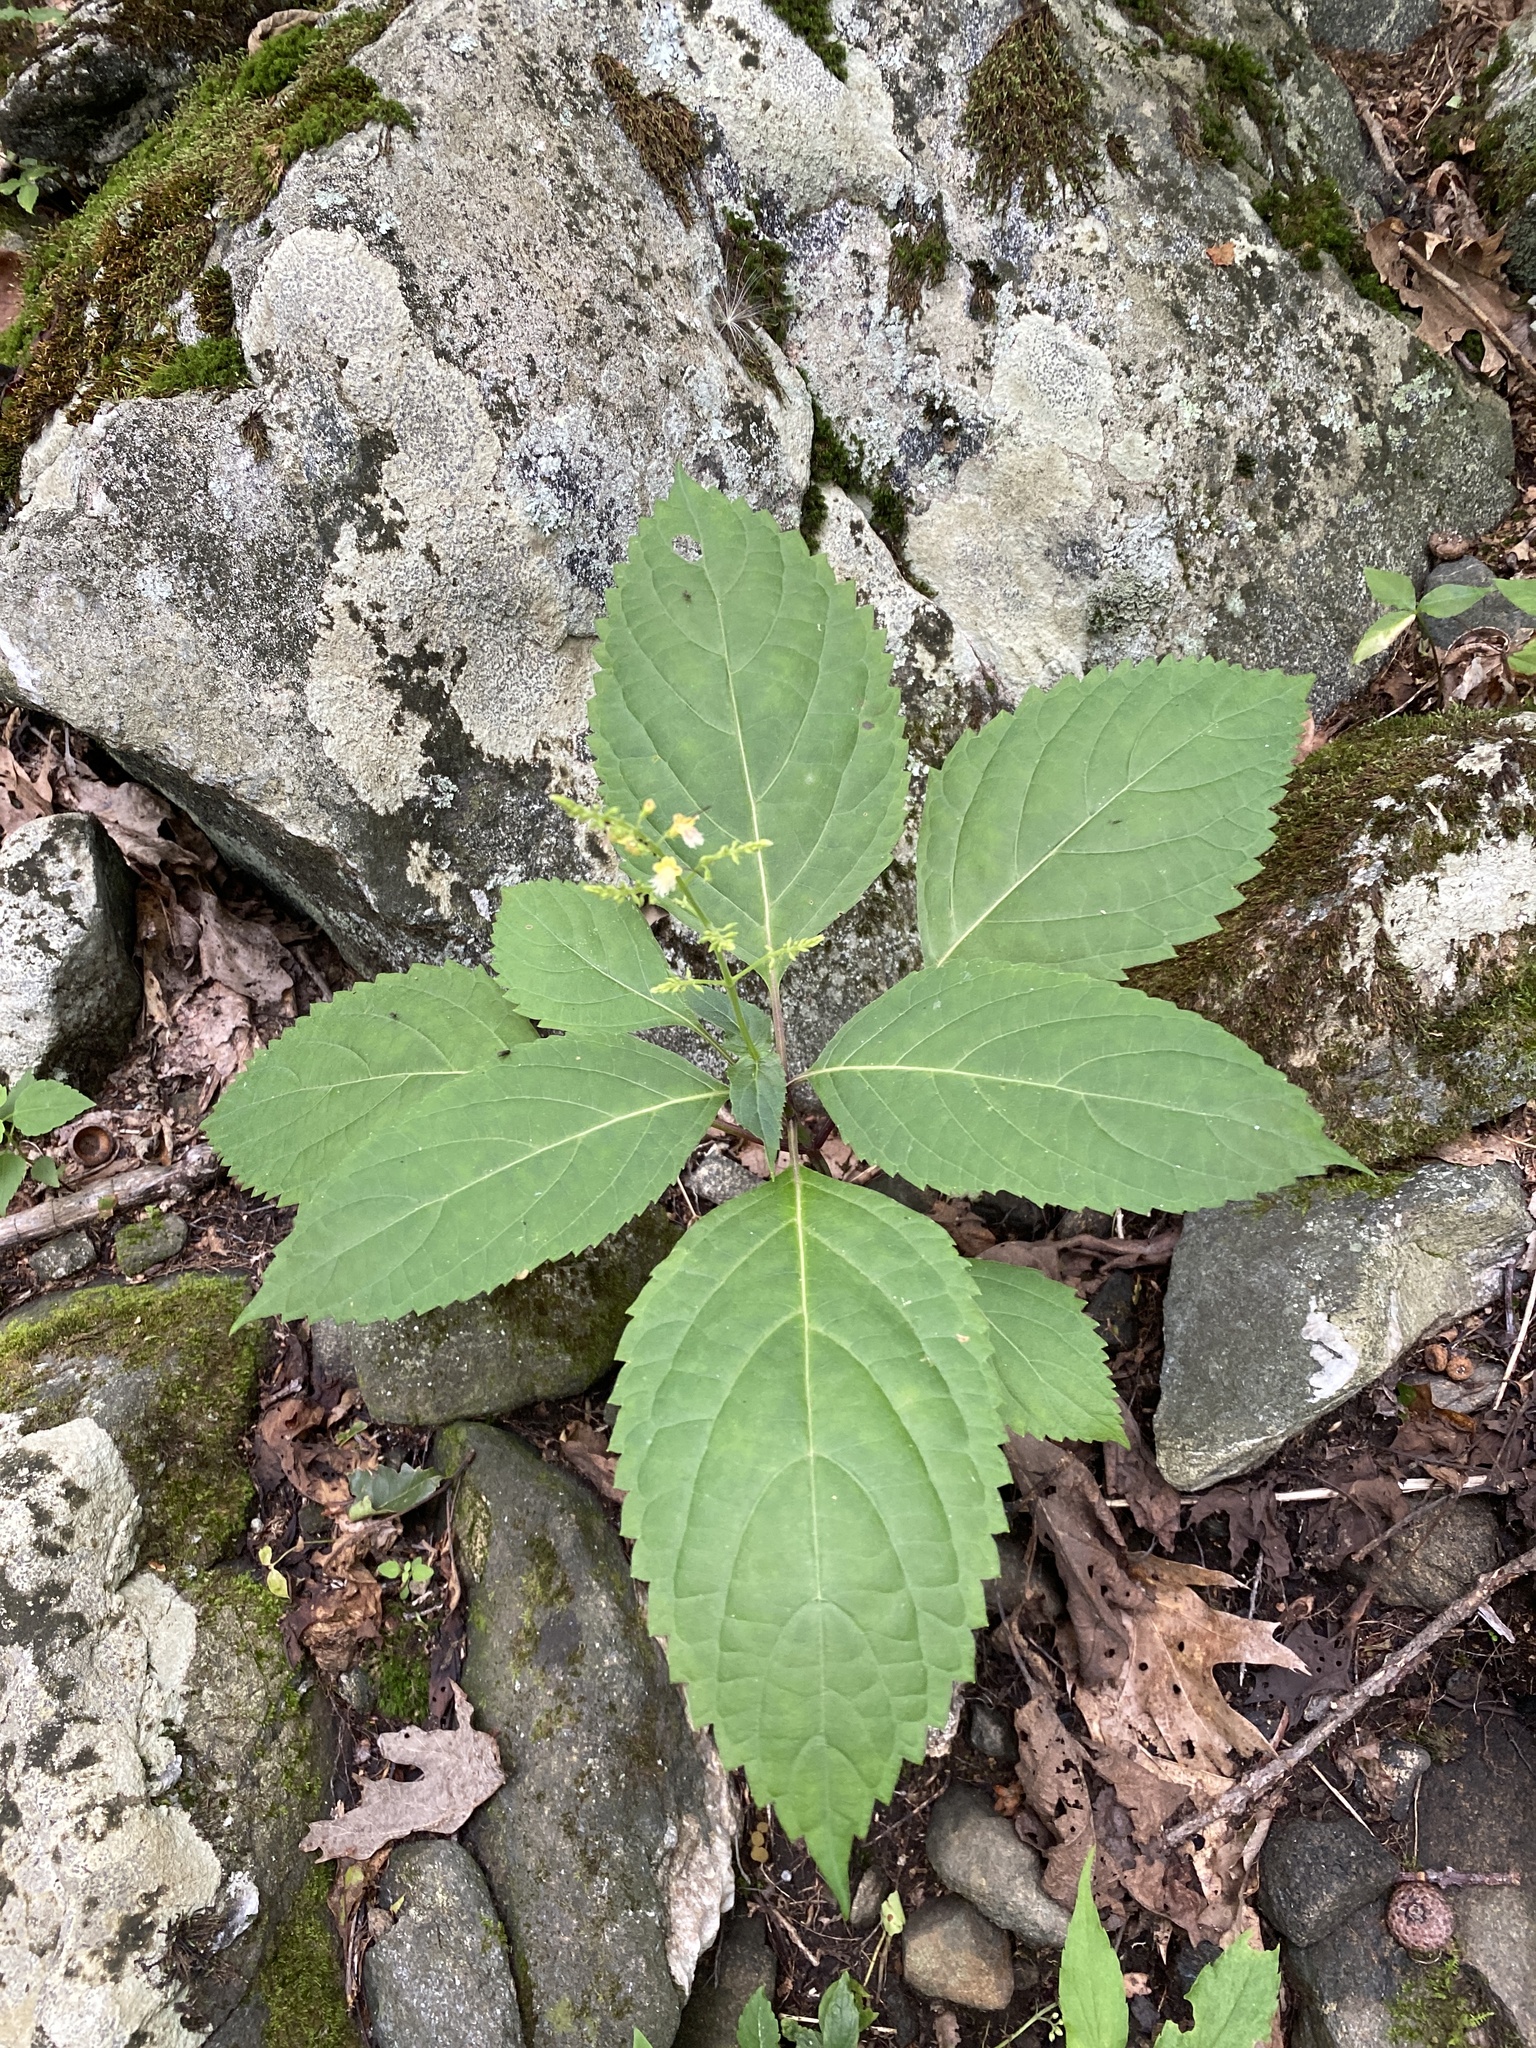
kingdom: Plantae
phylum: Tracheophyta
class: Magnoliopsida
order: Lamiales
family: Lamiaceae
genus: Collinsonia
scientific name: Collinsonia canadensis
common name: Northern horsebalm
